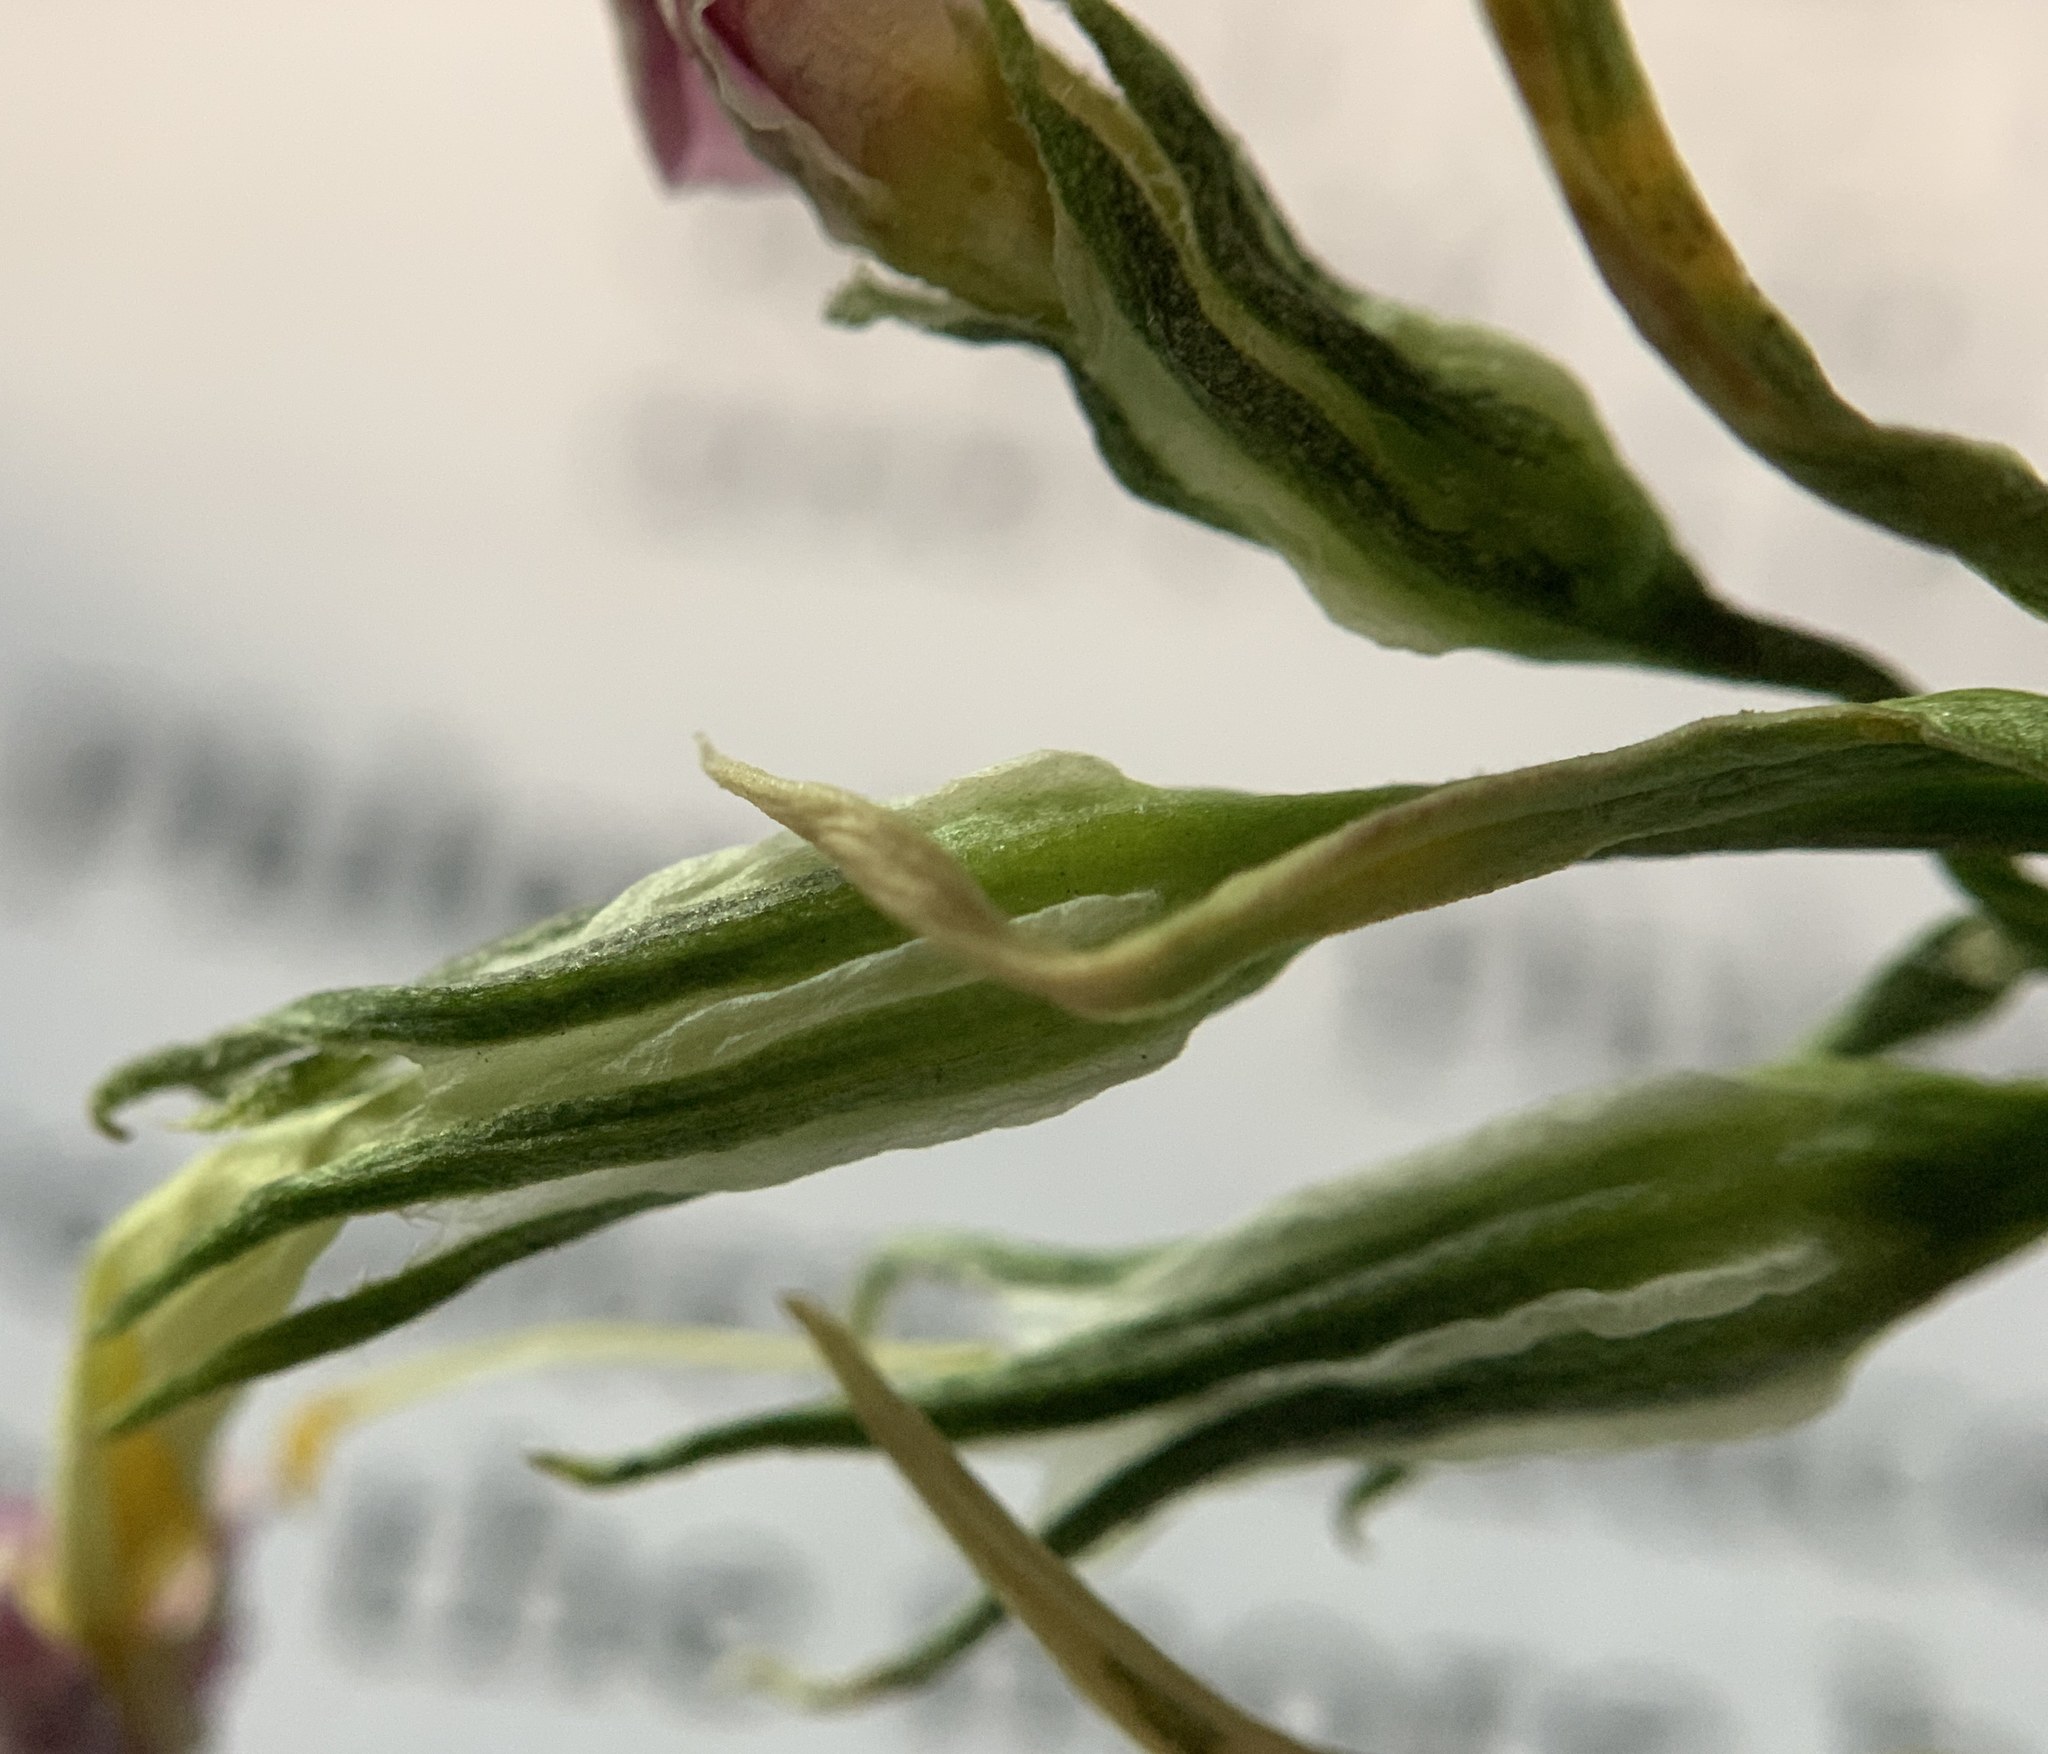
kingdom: Plantae
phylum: Tracheophyta
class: Magnoliopsida
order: Ericales
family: Polemoniaceae
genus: Phlox
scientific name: Phlox longifolia
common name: Longleaf phlox
